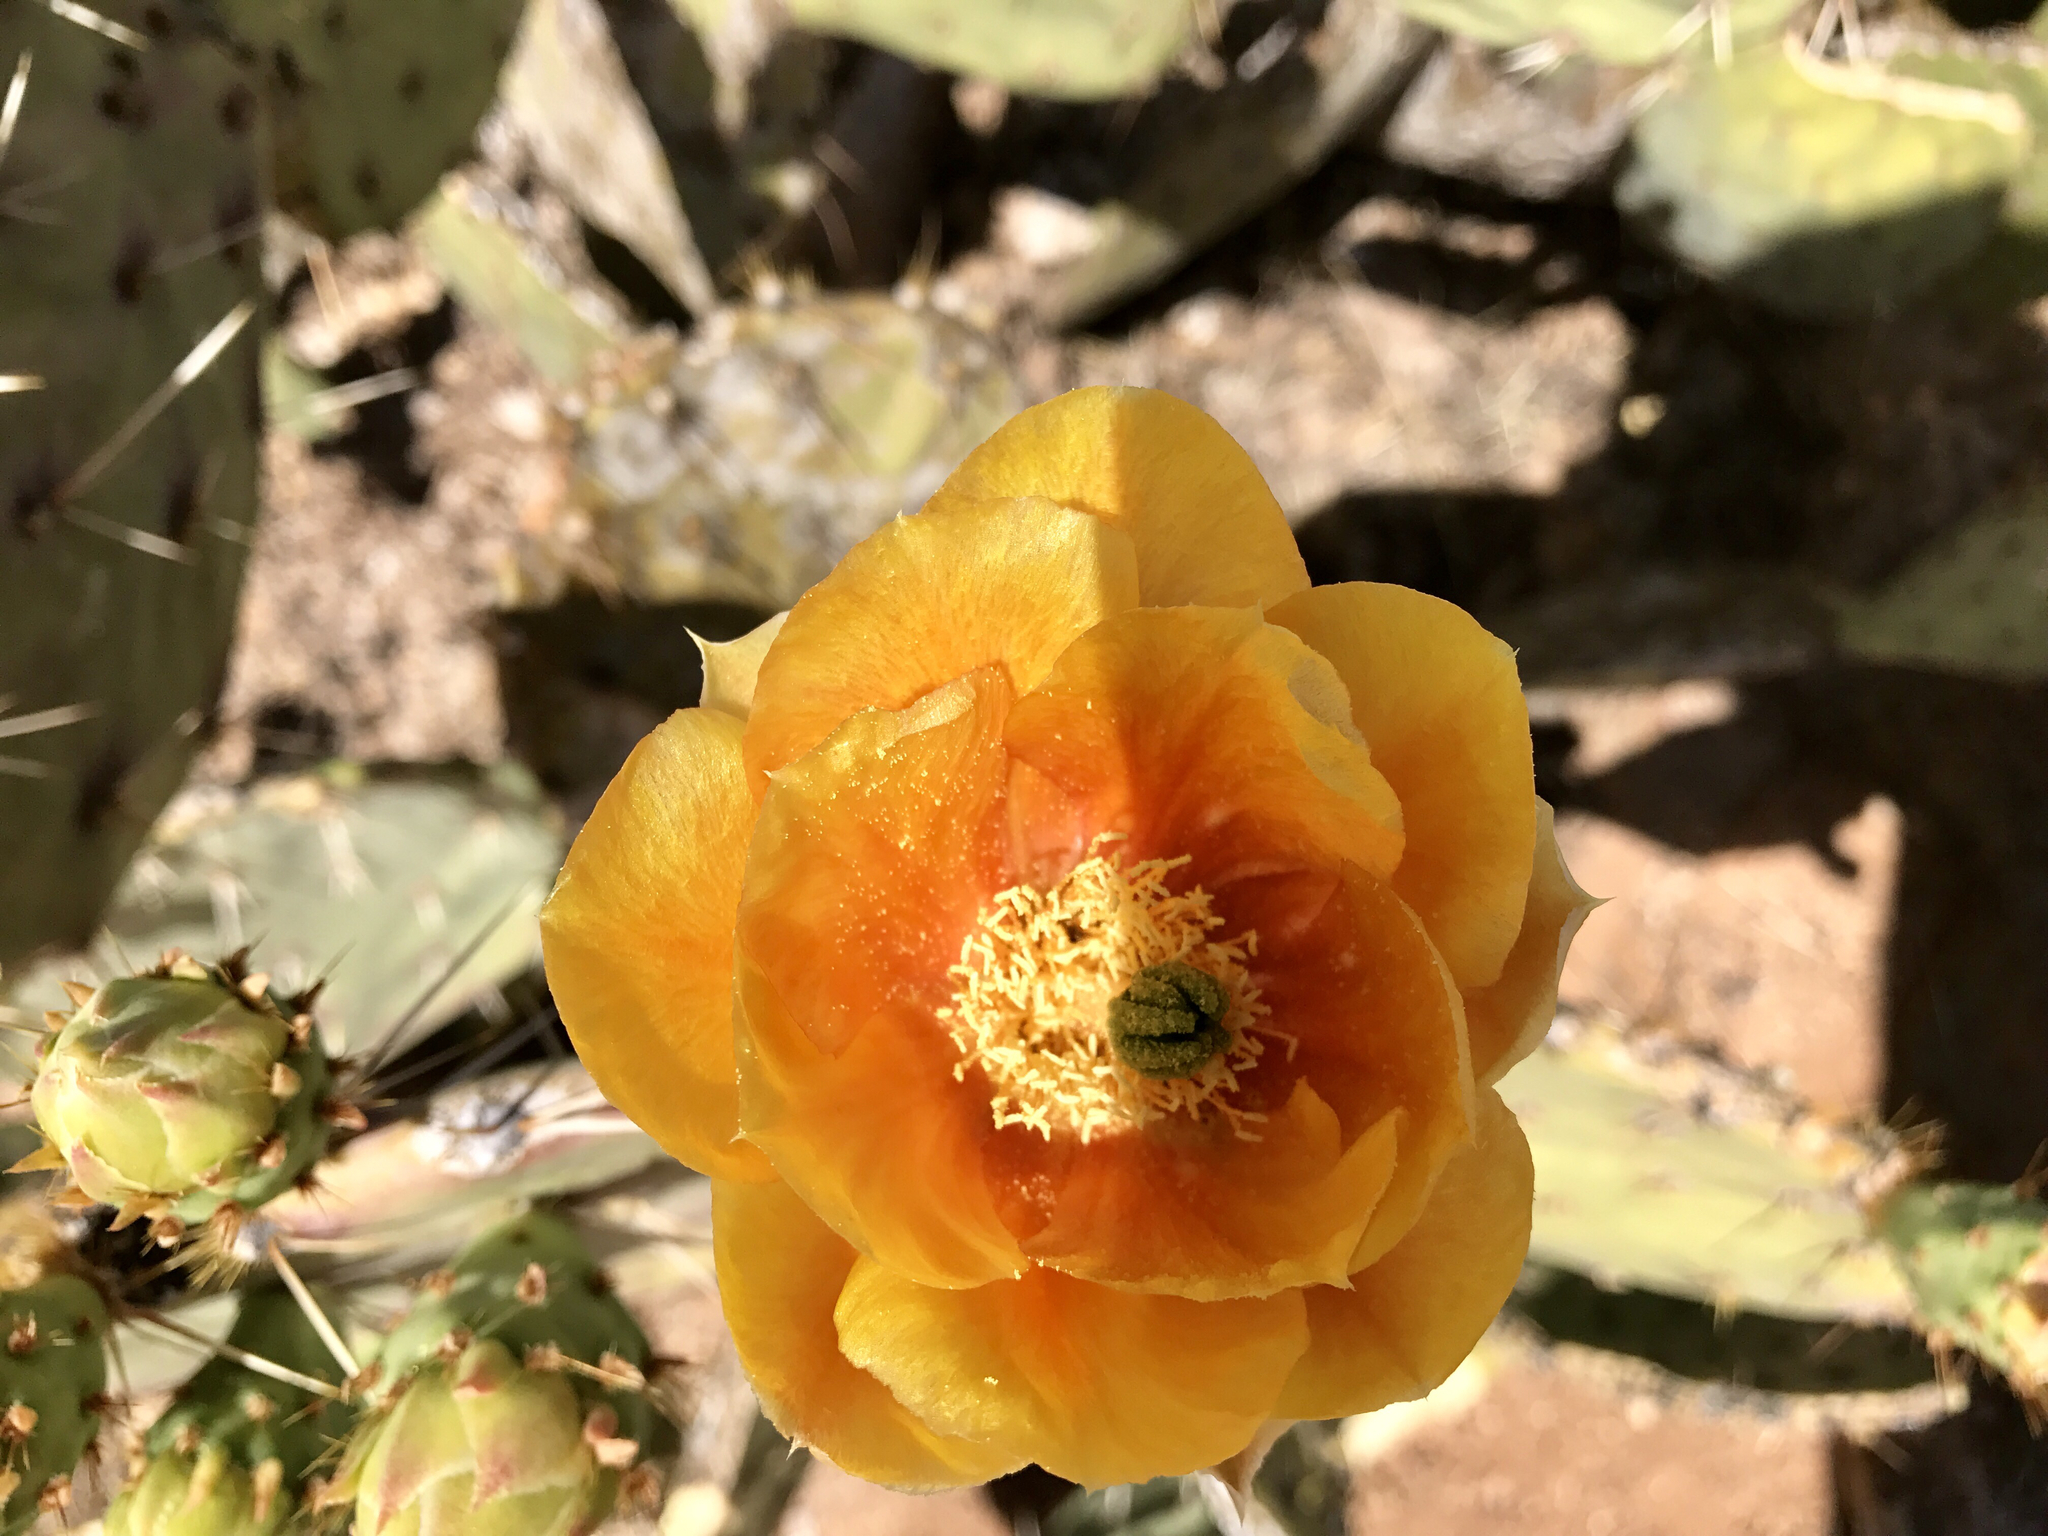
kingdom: Plantae
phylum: Tracheophyta
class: Magnoliopsida
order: Caryophyllales
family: Cactaceae
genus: Opuntia
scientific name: Opuntia engelmannii
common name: Cactus-apple
